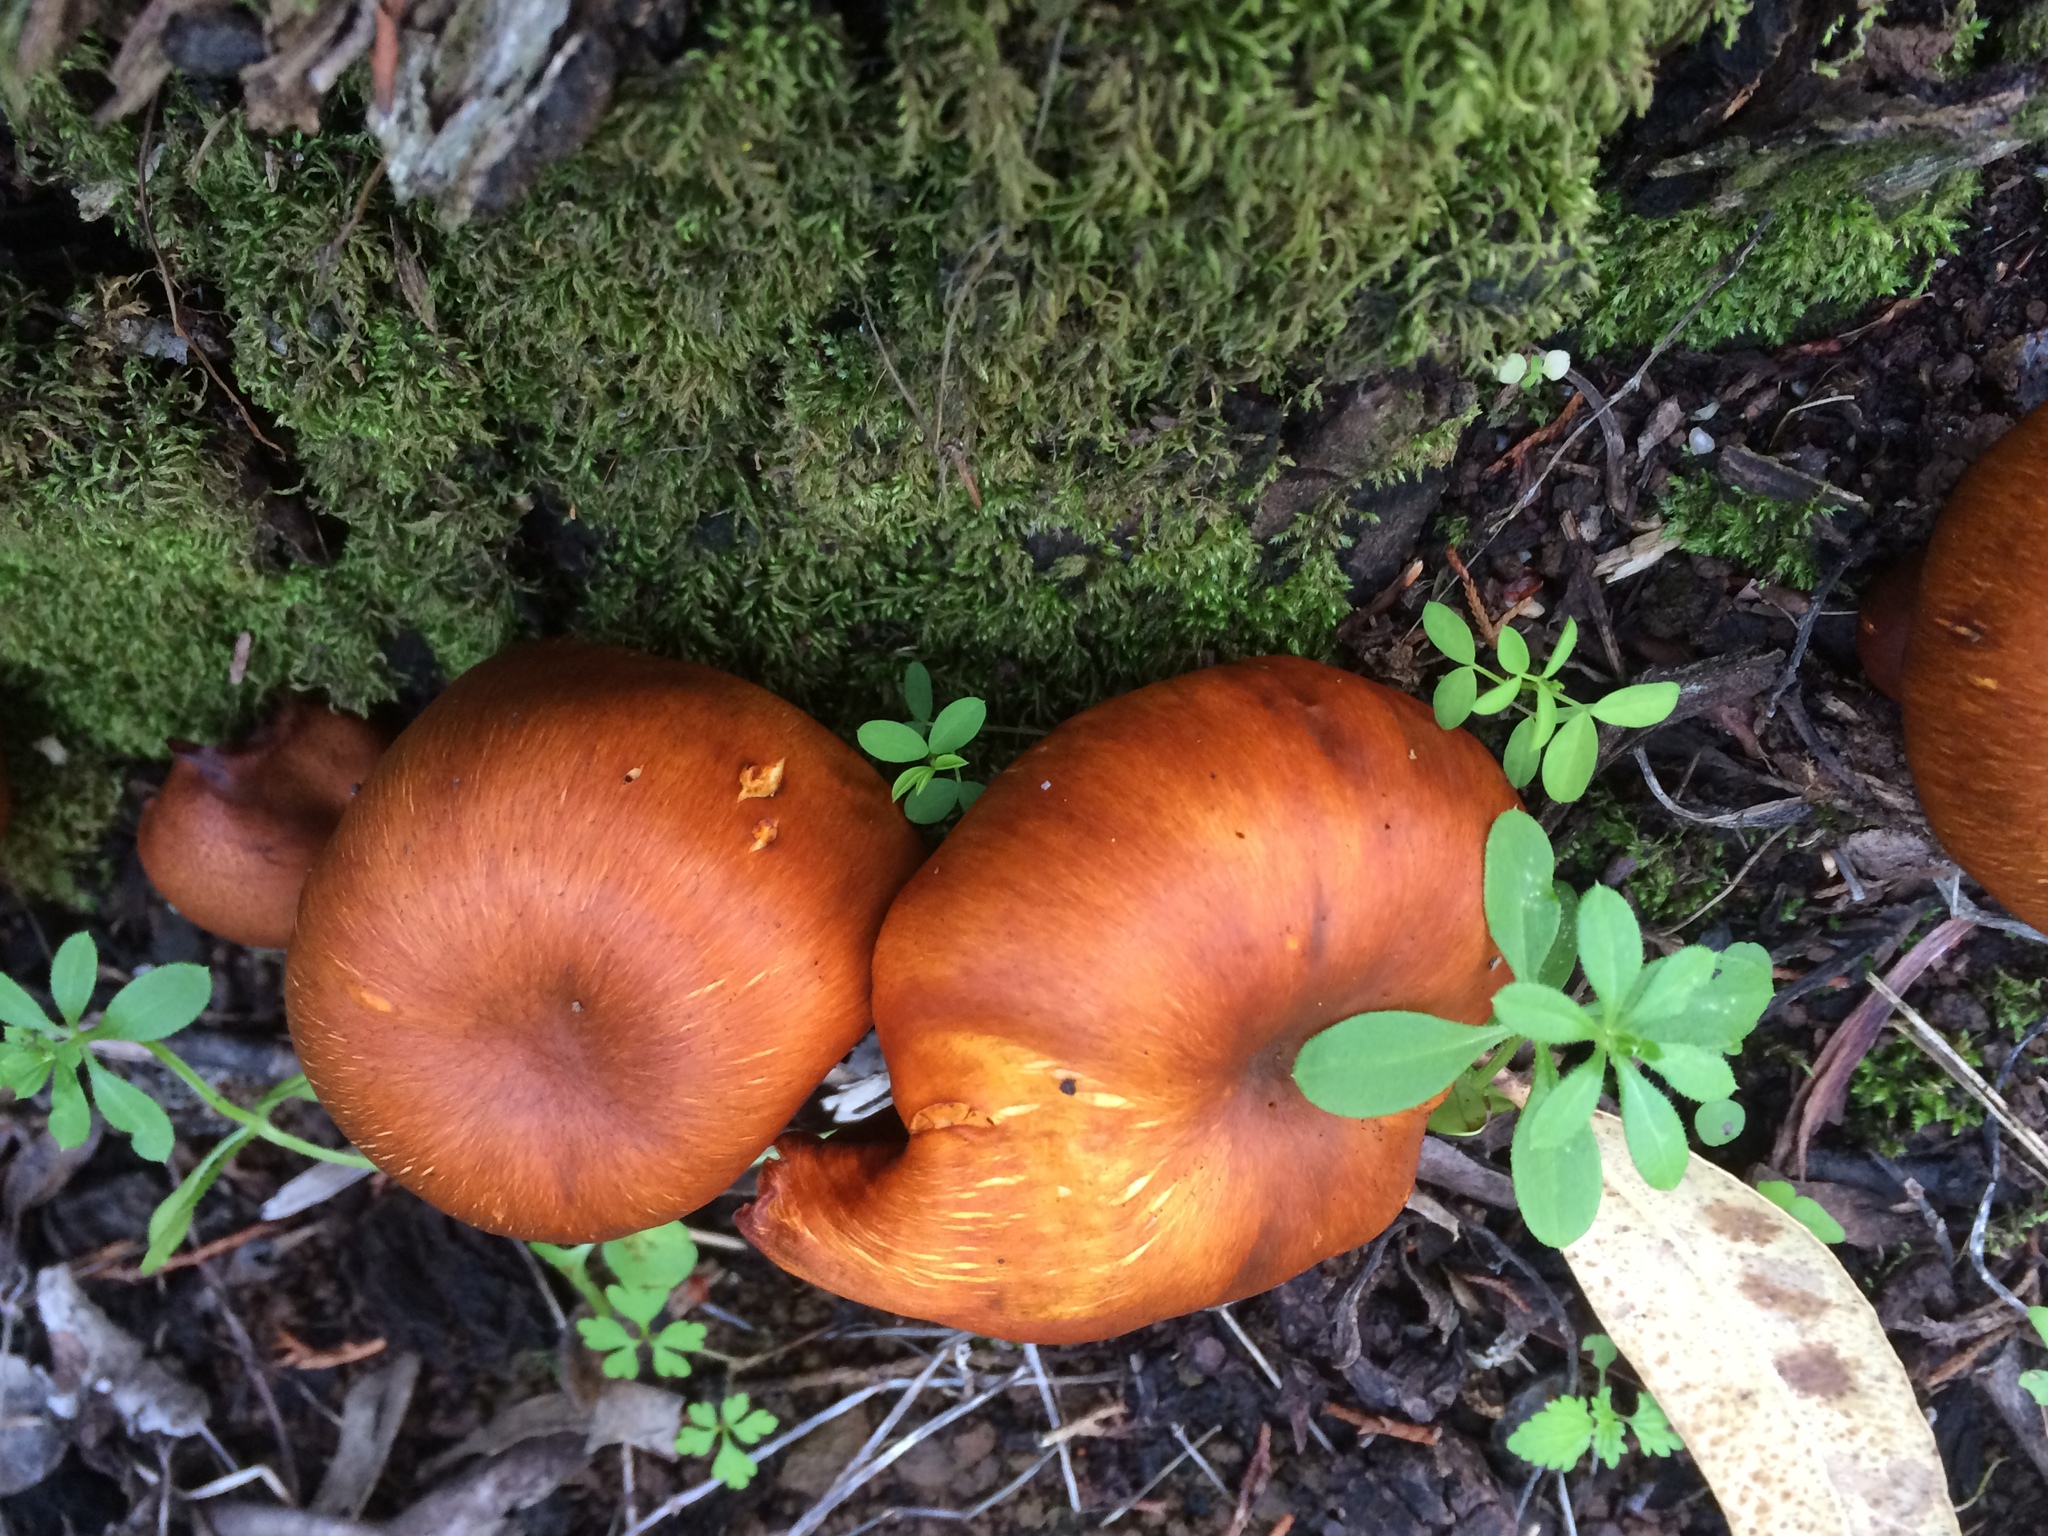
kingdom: Fungi
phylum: Basidiomycota
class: Agaricomycetes
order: Agaricales
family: Omphalotaceae
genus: Omphalotus
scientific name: Omphalotus olearius
